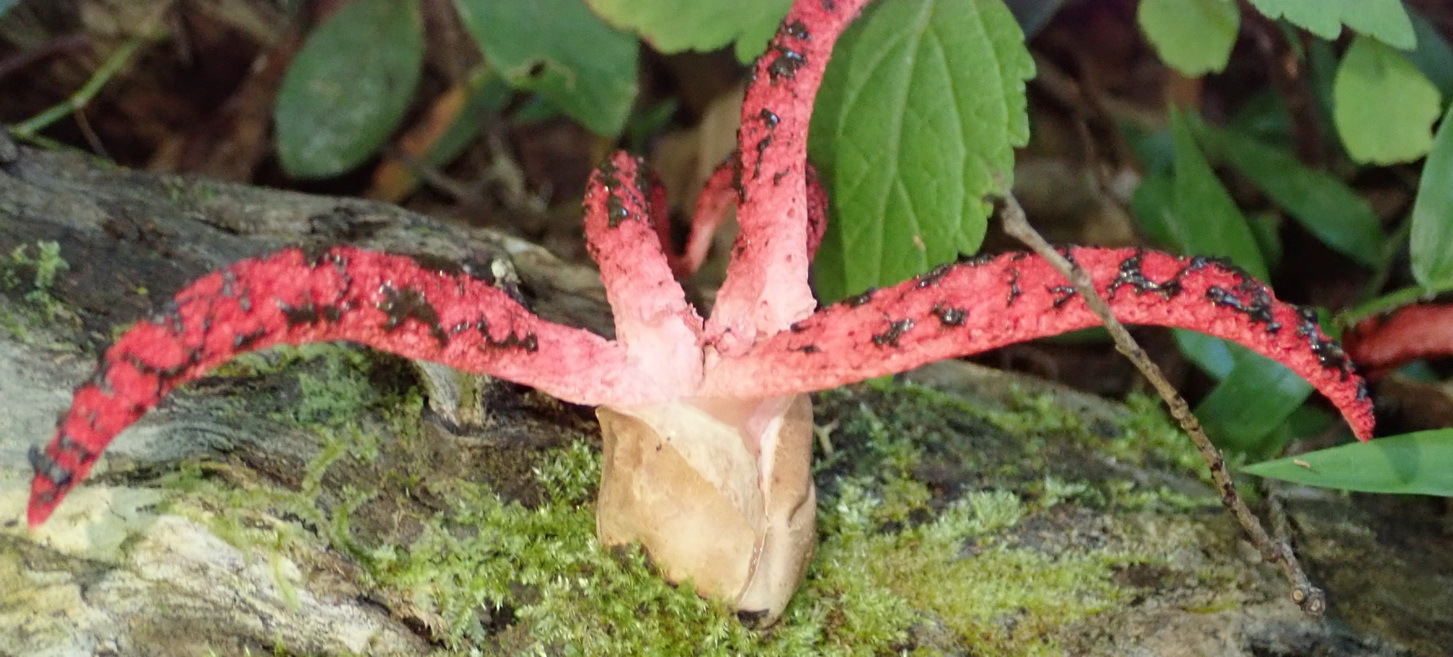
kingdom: Fungi
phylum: Basidiomycota
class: Agaricomycetes
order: Phallales
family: Phallaceae
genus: Clathrus
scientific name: Clathrus archeri
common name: Devil's fingers
